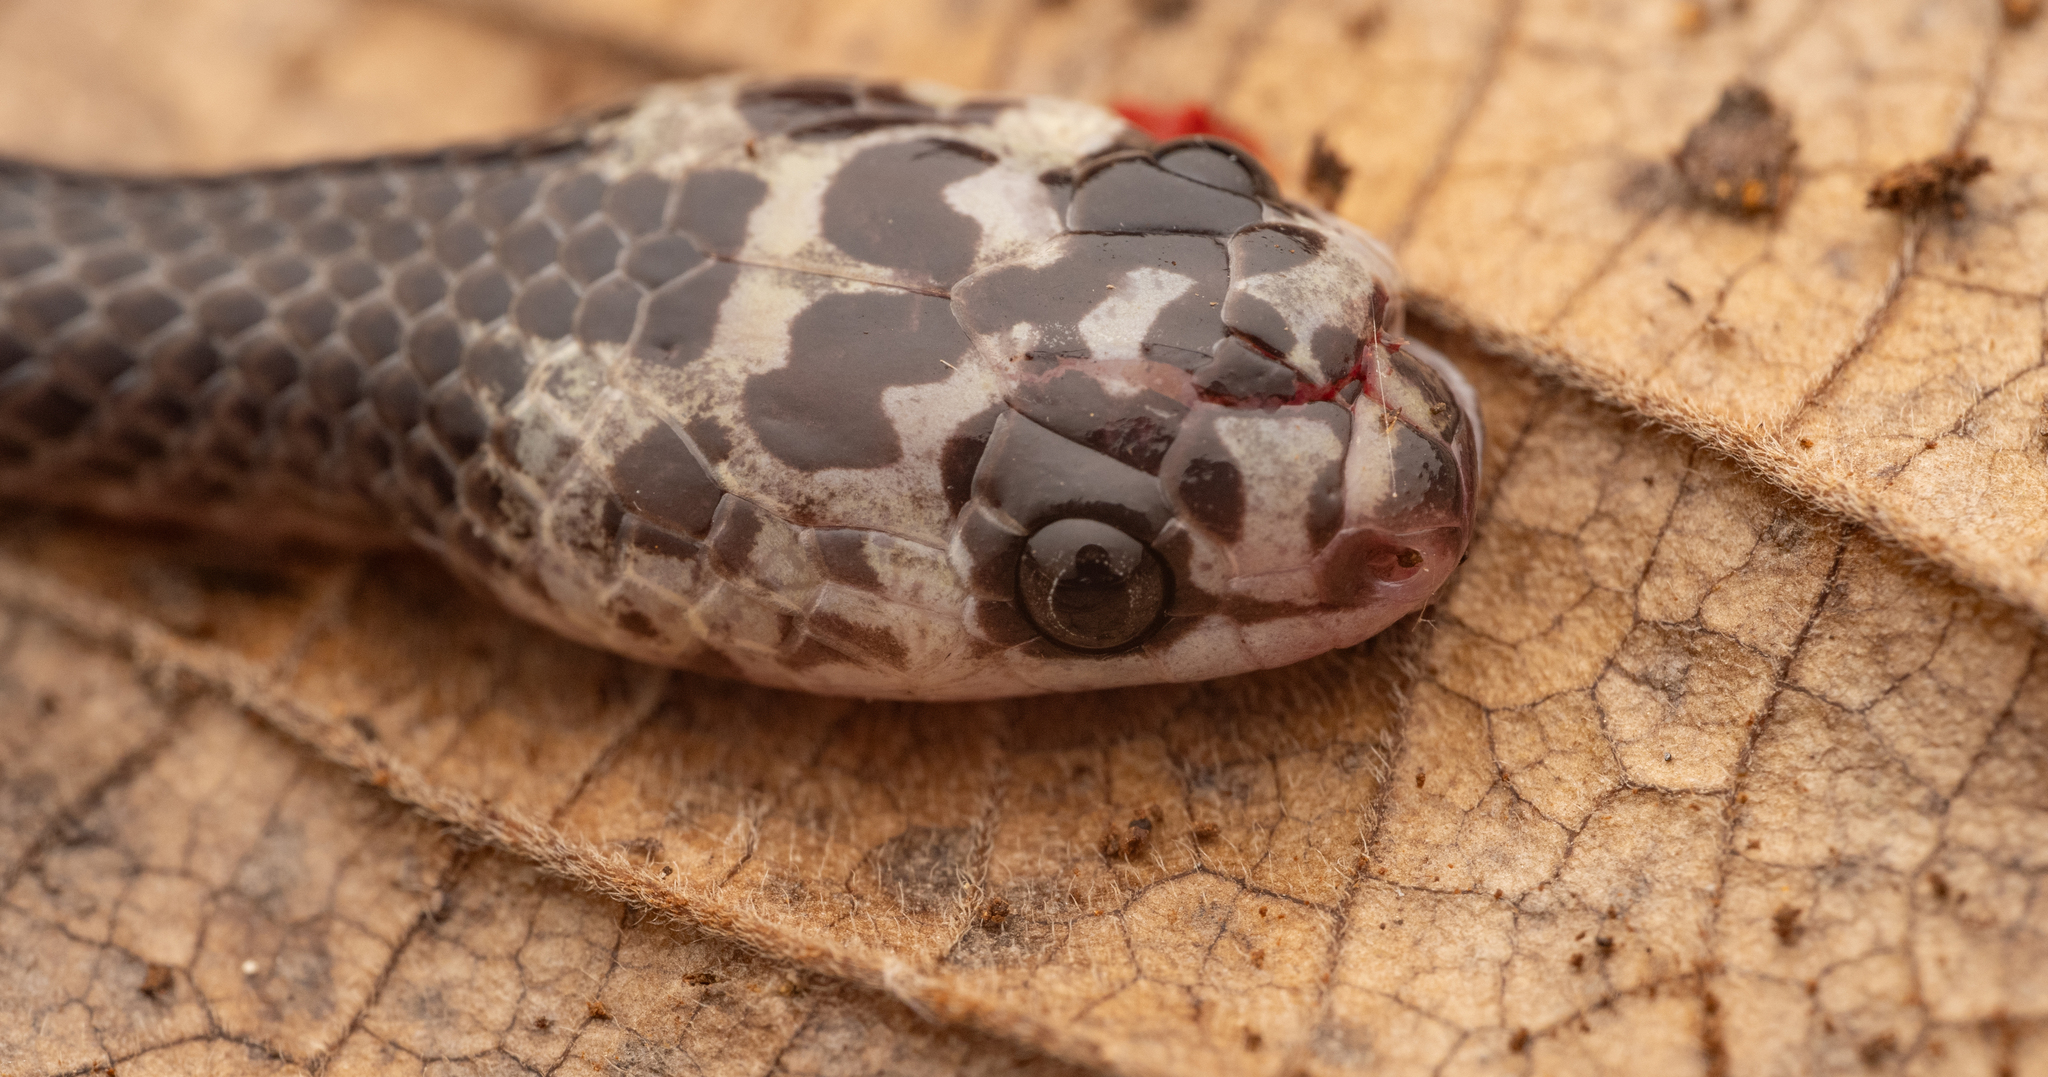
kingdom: Animalia
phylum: Chordata
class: Squamata
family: Colubridae
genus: Stegonotus
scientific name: Stegonotus diehli
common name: Diehl’s little ground snake
